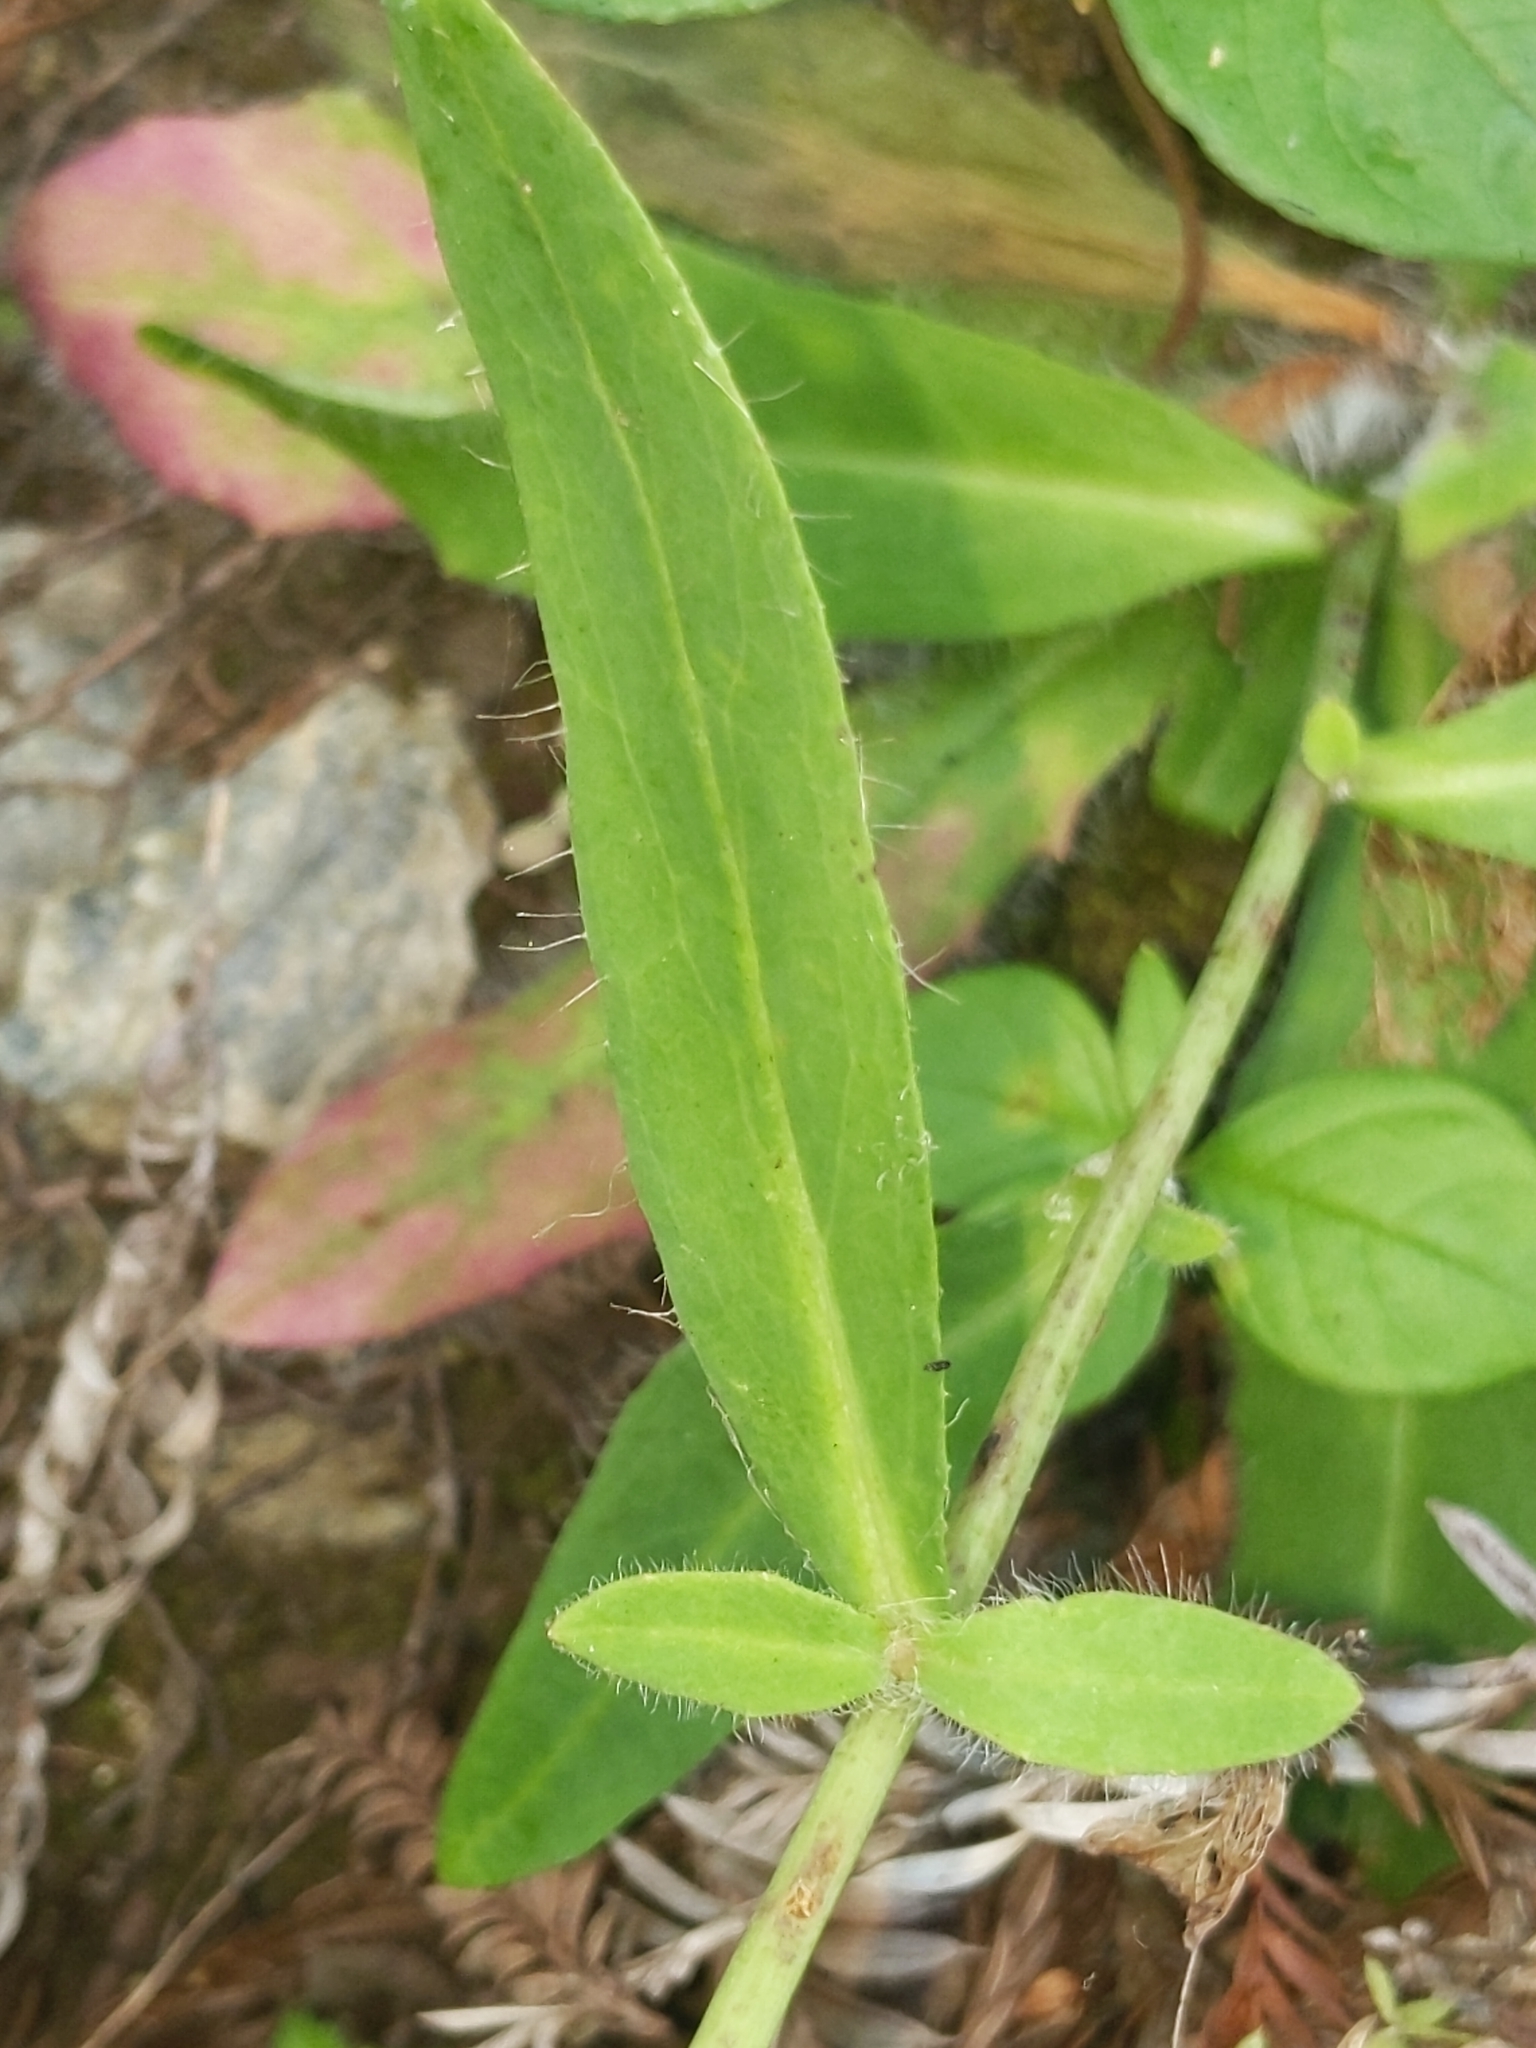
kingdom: Plantae
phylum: Tracheophyta
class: Magnoliopsida
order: Asterales
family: Asteraceae
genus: Hieracium
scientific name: Hieracium albiflorum
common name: White hawkweed
